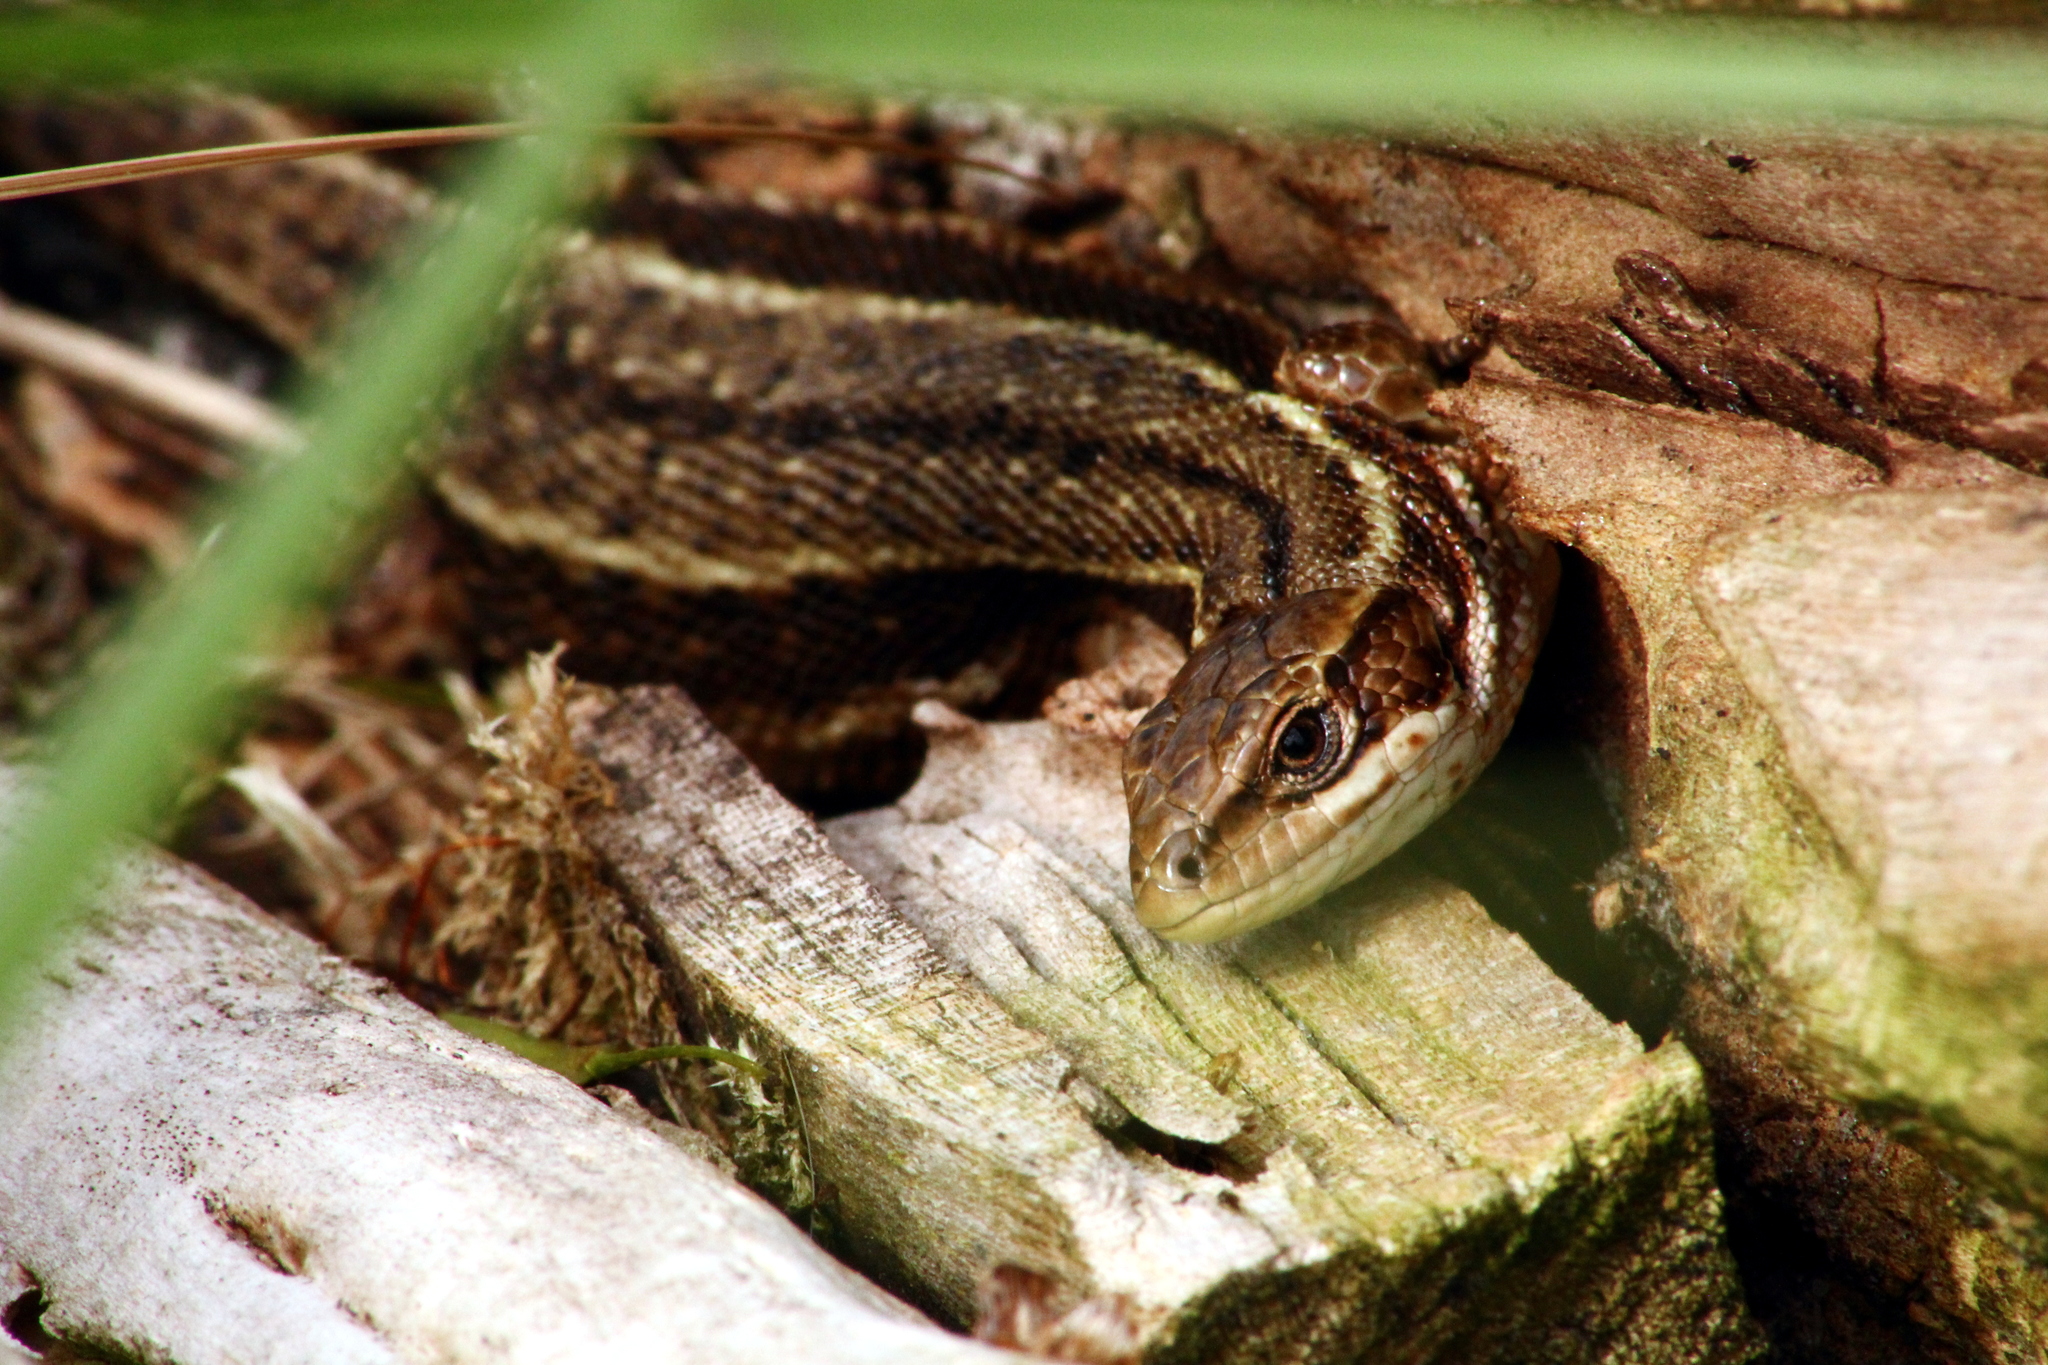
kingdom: Animalia
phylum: Chordata
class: Squamata
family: Lacertidae
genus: Zootoca
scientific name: Zootoca vivipara
